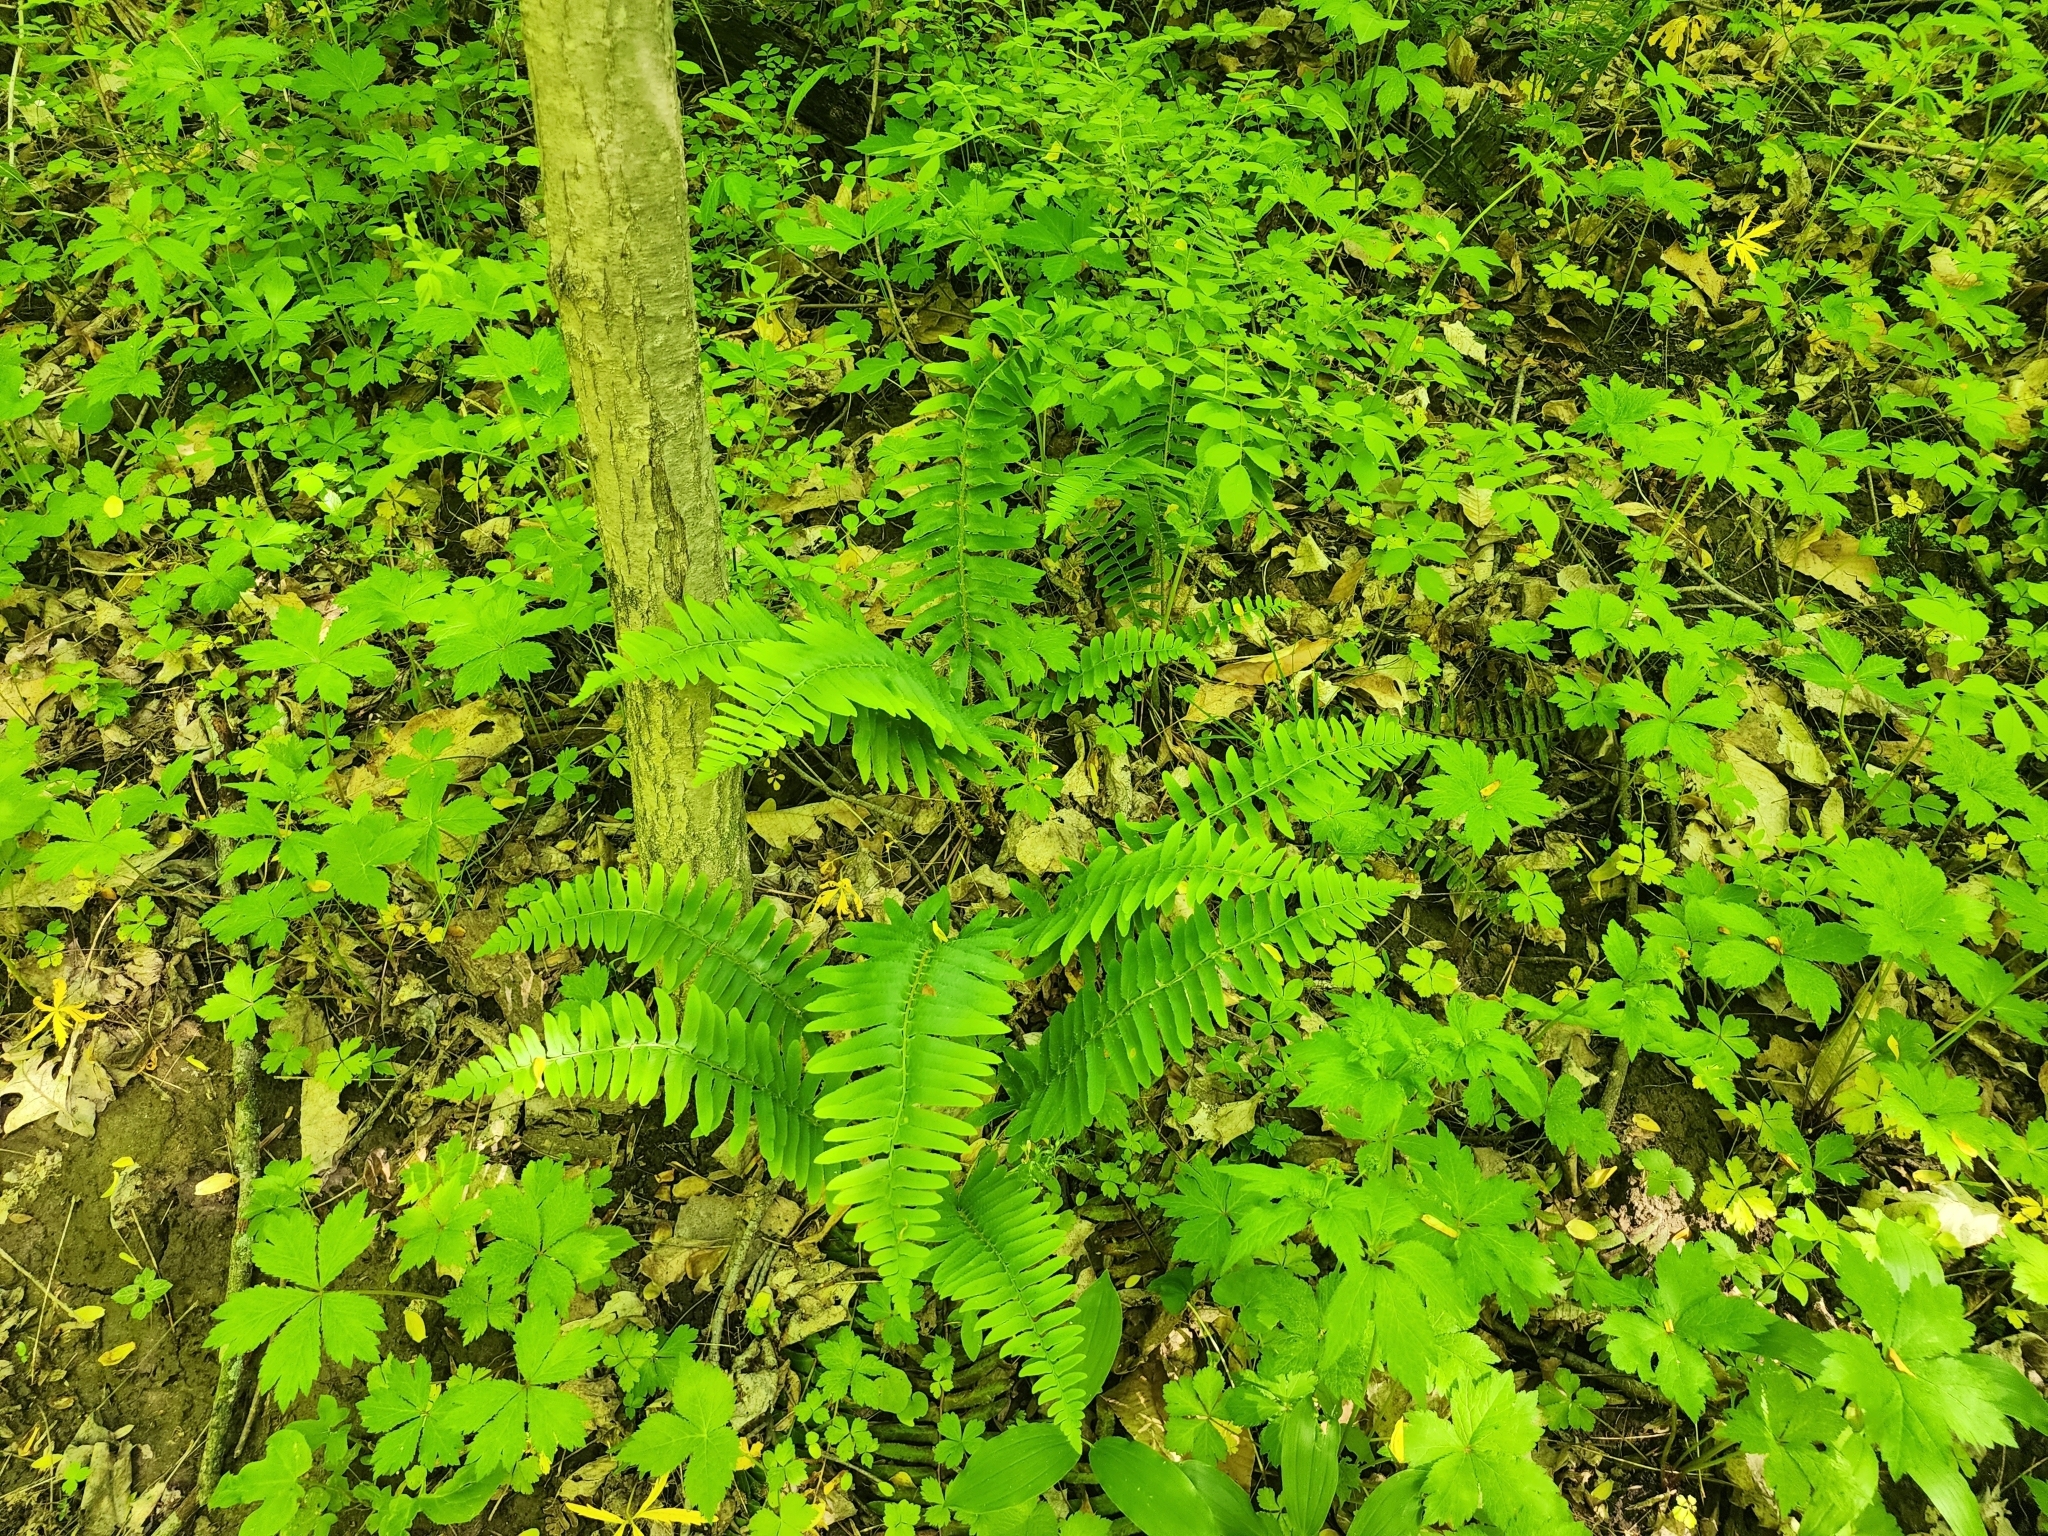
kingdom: Plantae
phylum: Tracheophyta
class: Polypodiopsida
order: Polypodiales
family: Dryopteridaceae
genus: Polystichum
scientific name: Polystichum acrostichoides
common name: Christmas fern
